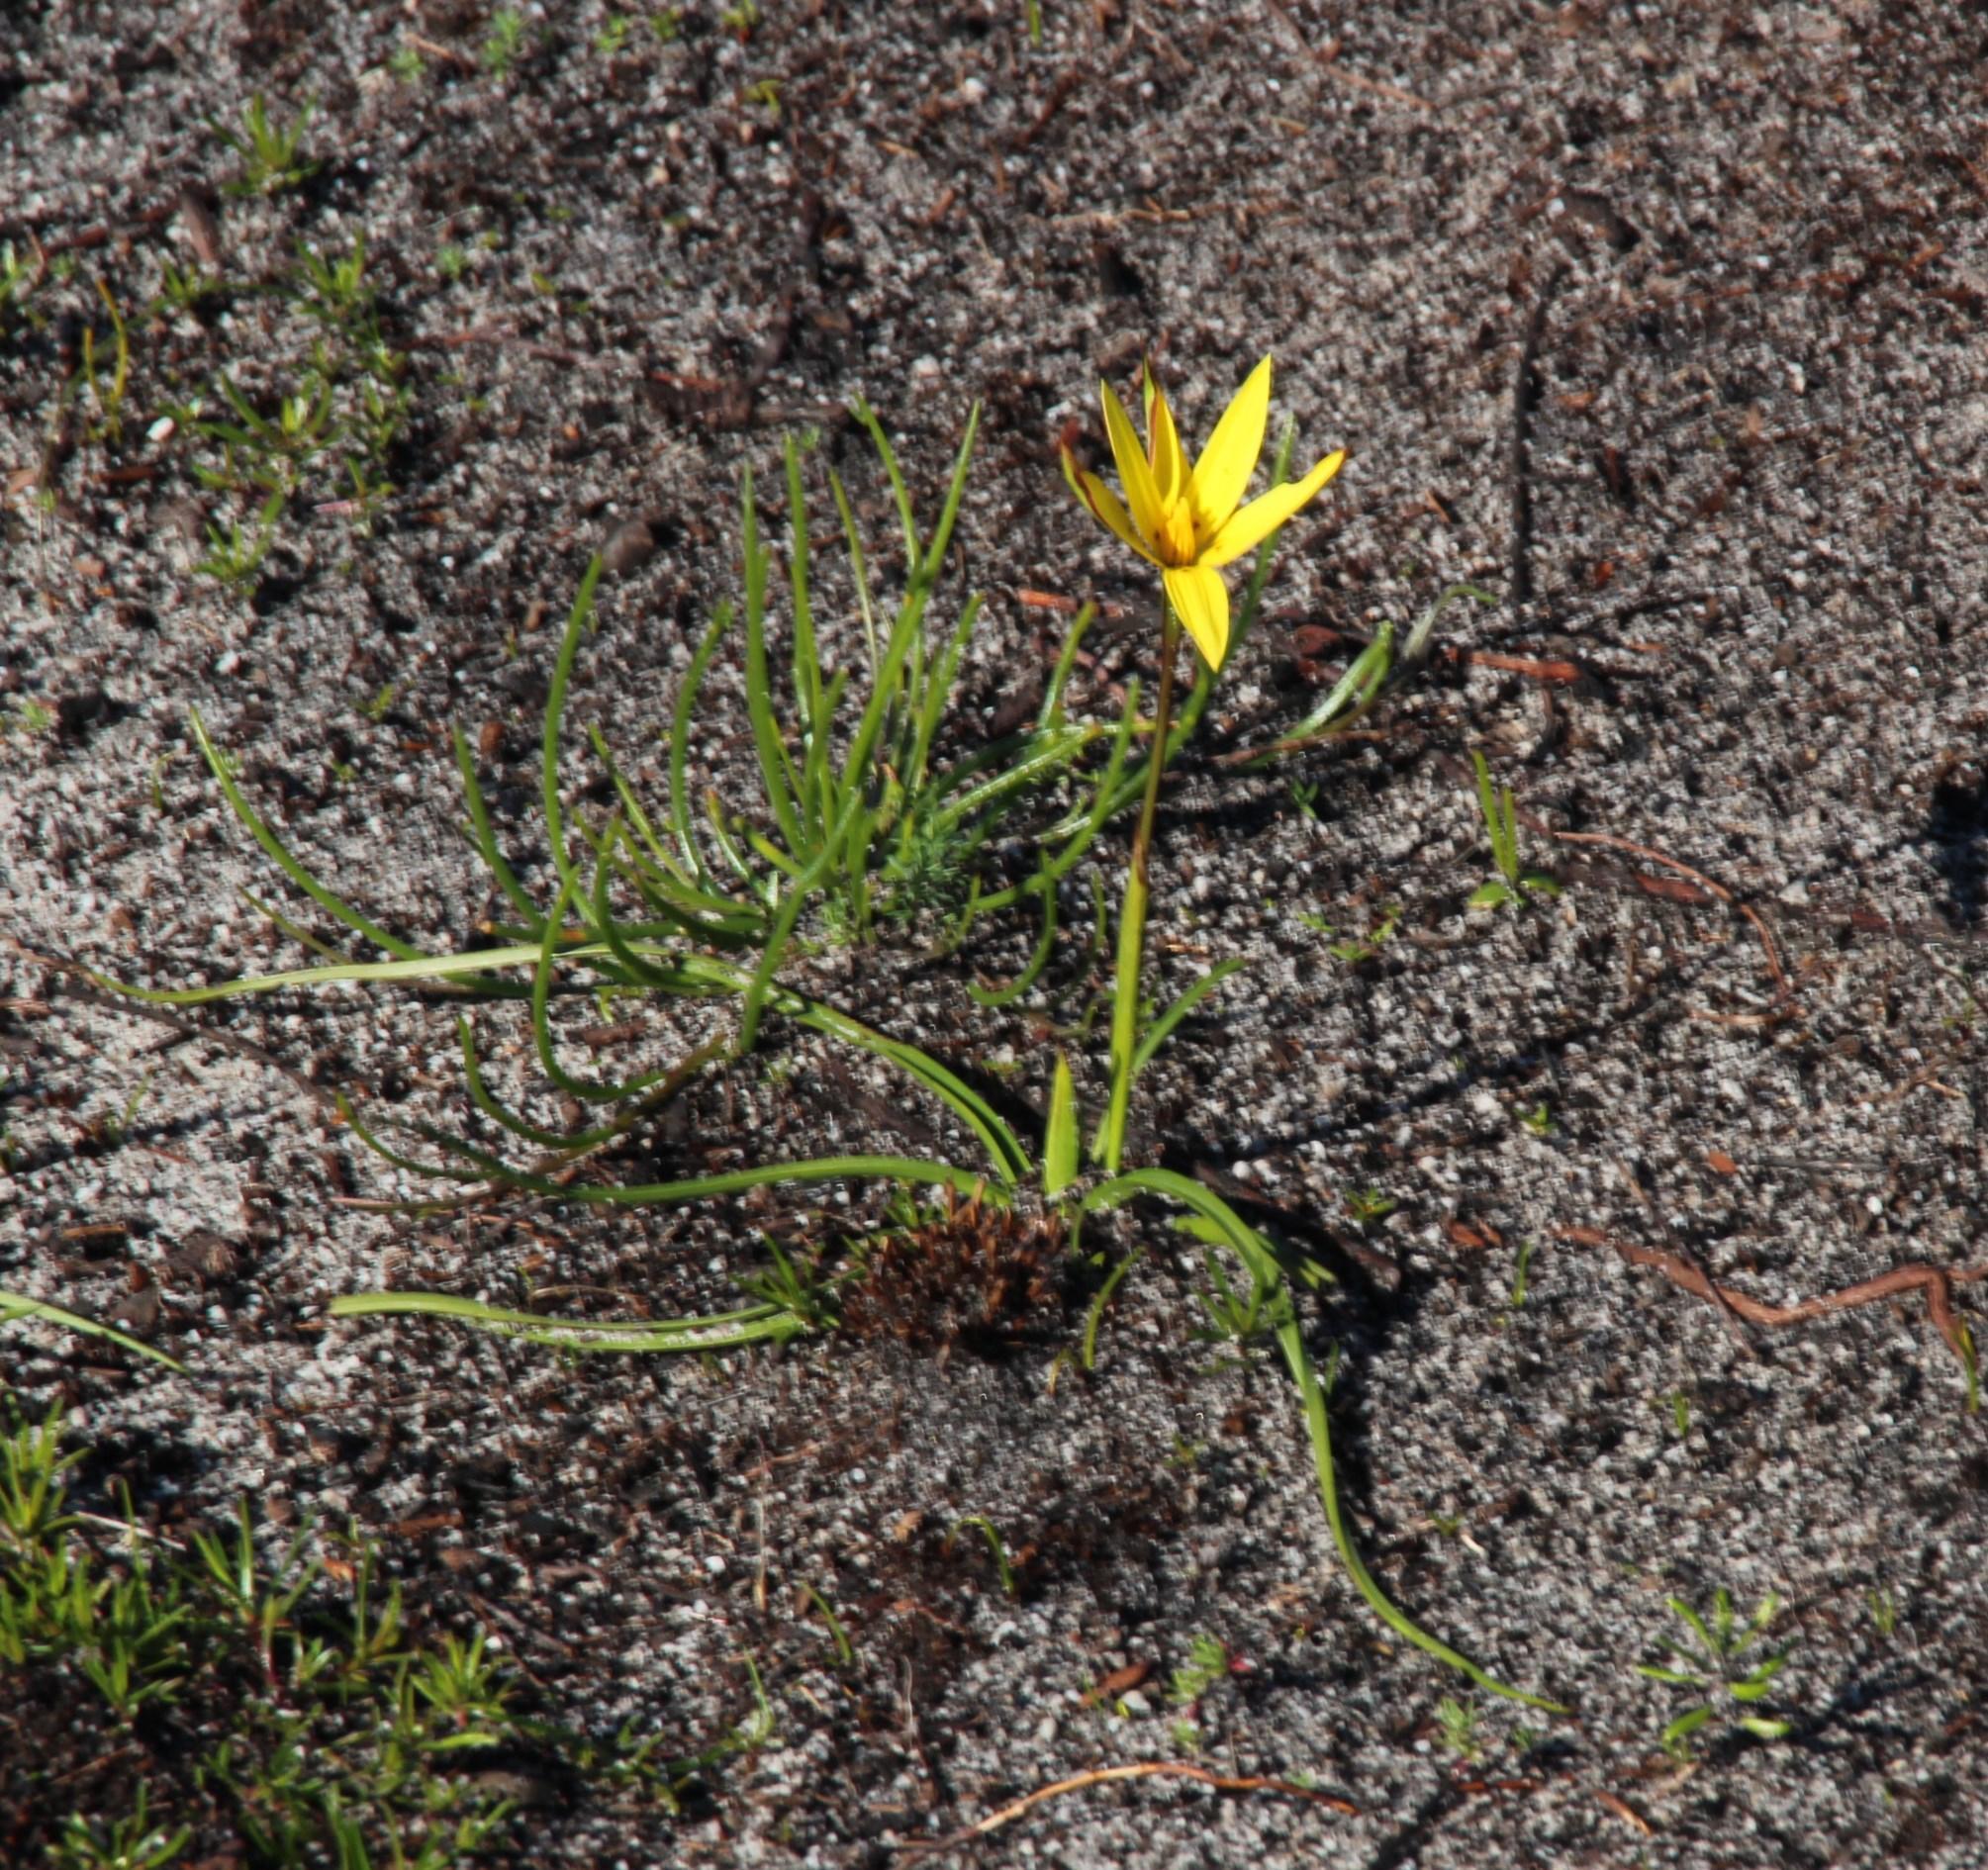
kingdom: Plantae
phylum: Tracheophyta
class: Liliopsida
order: Asparagales
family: Hypoxidaceae
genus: Pauridia
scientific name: Pauridia capensis
